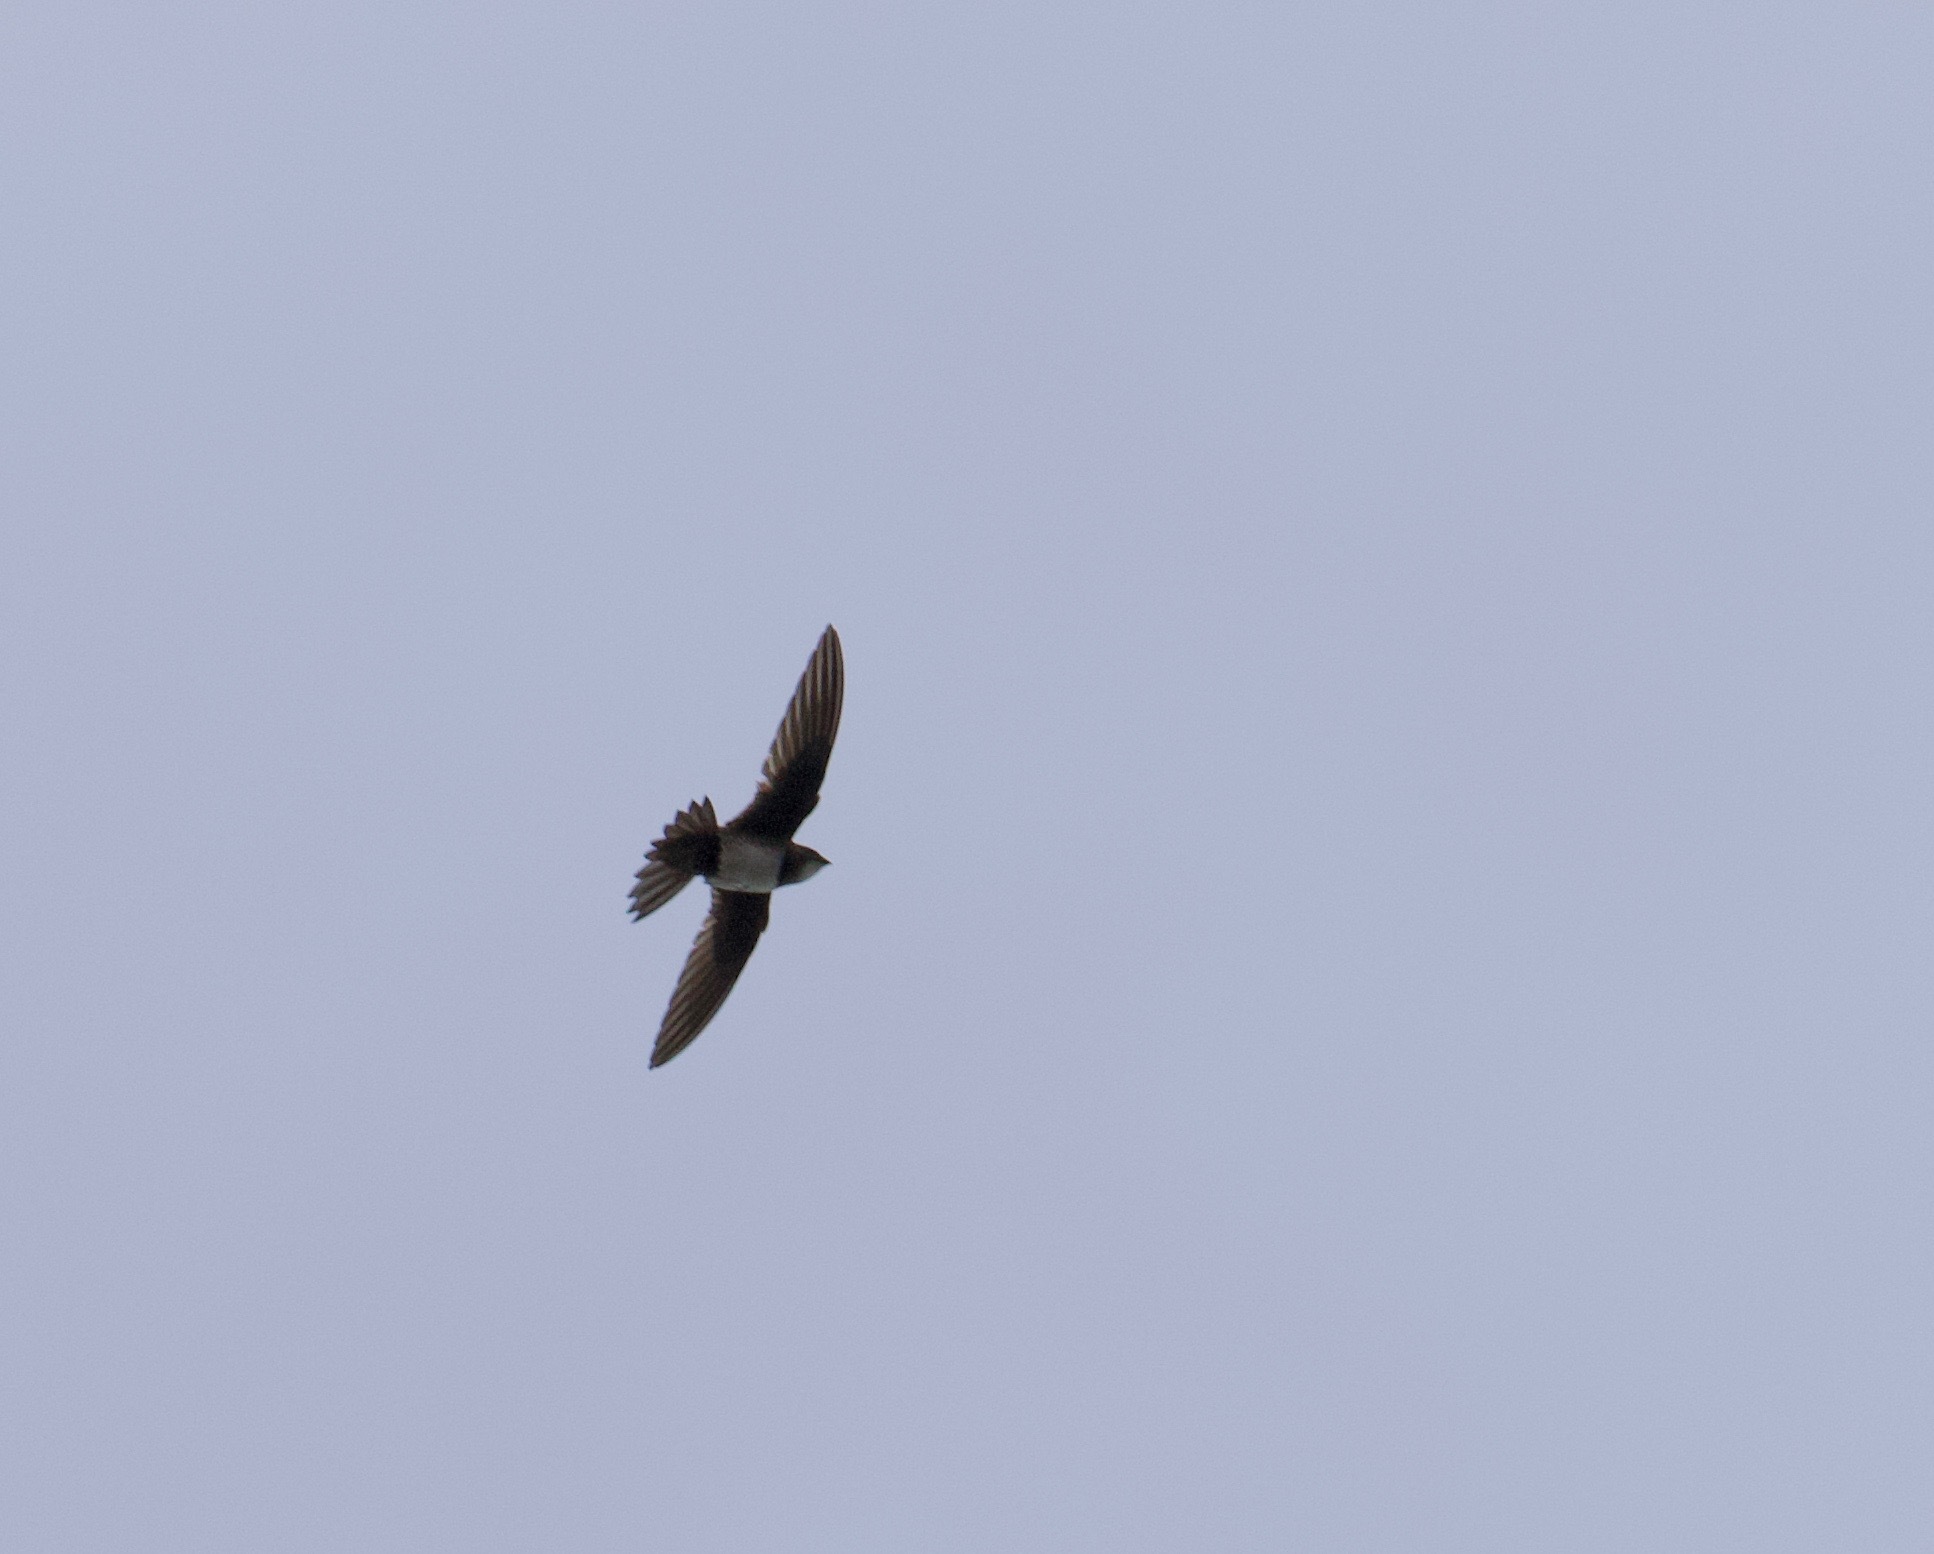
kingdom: Animalia
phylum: Chordata
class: Aves
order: Apodiformes
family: Apodidae
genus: Tachymarptis
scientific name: Tachymarptis melba
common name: Alpine swift
